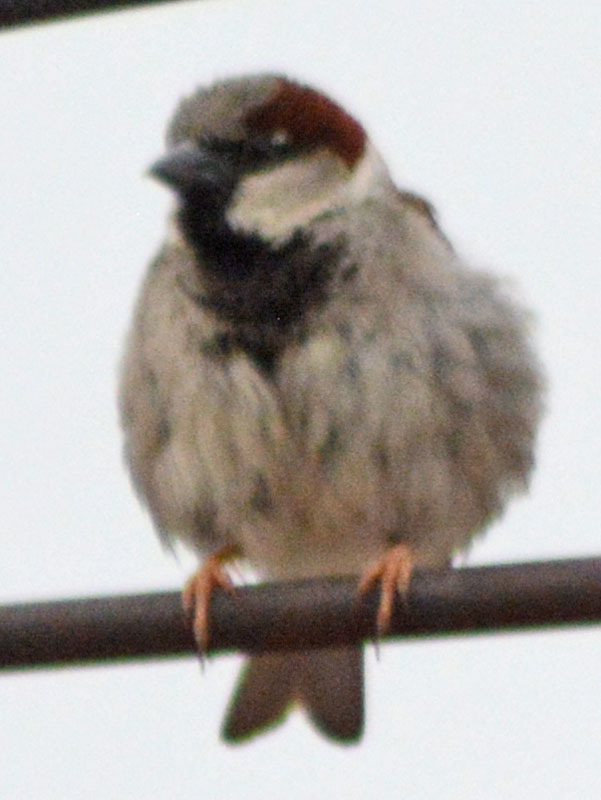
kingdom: Animalia
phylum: Chordata
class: Aves
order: Passeriformes
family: Passeridae
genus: Passer
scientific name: Passer domesticus
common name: House sparrow
